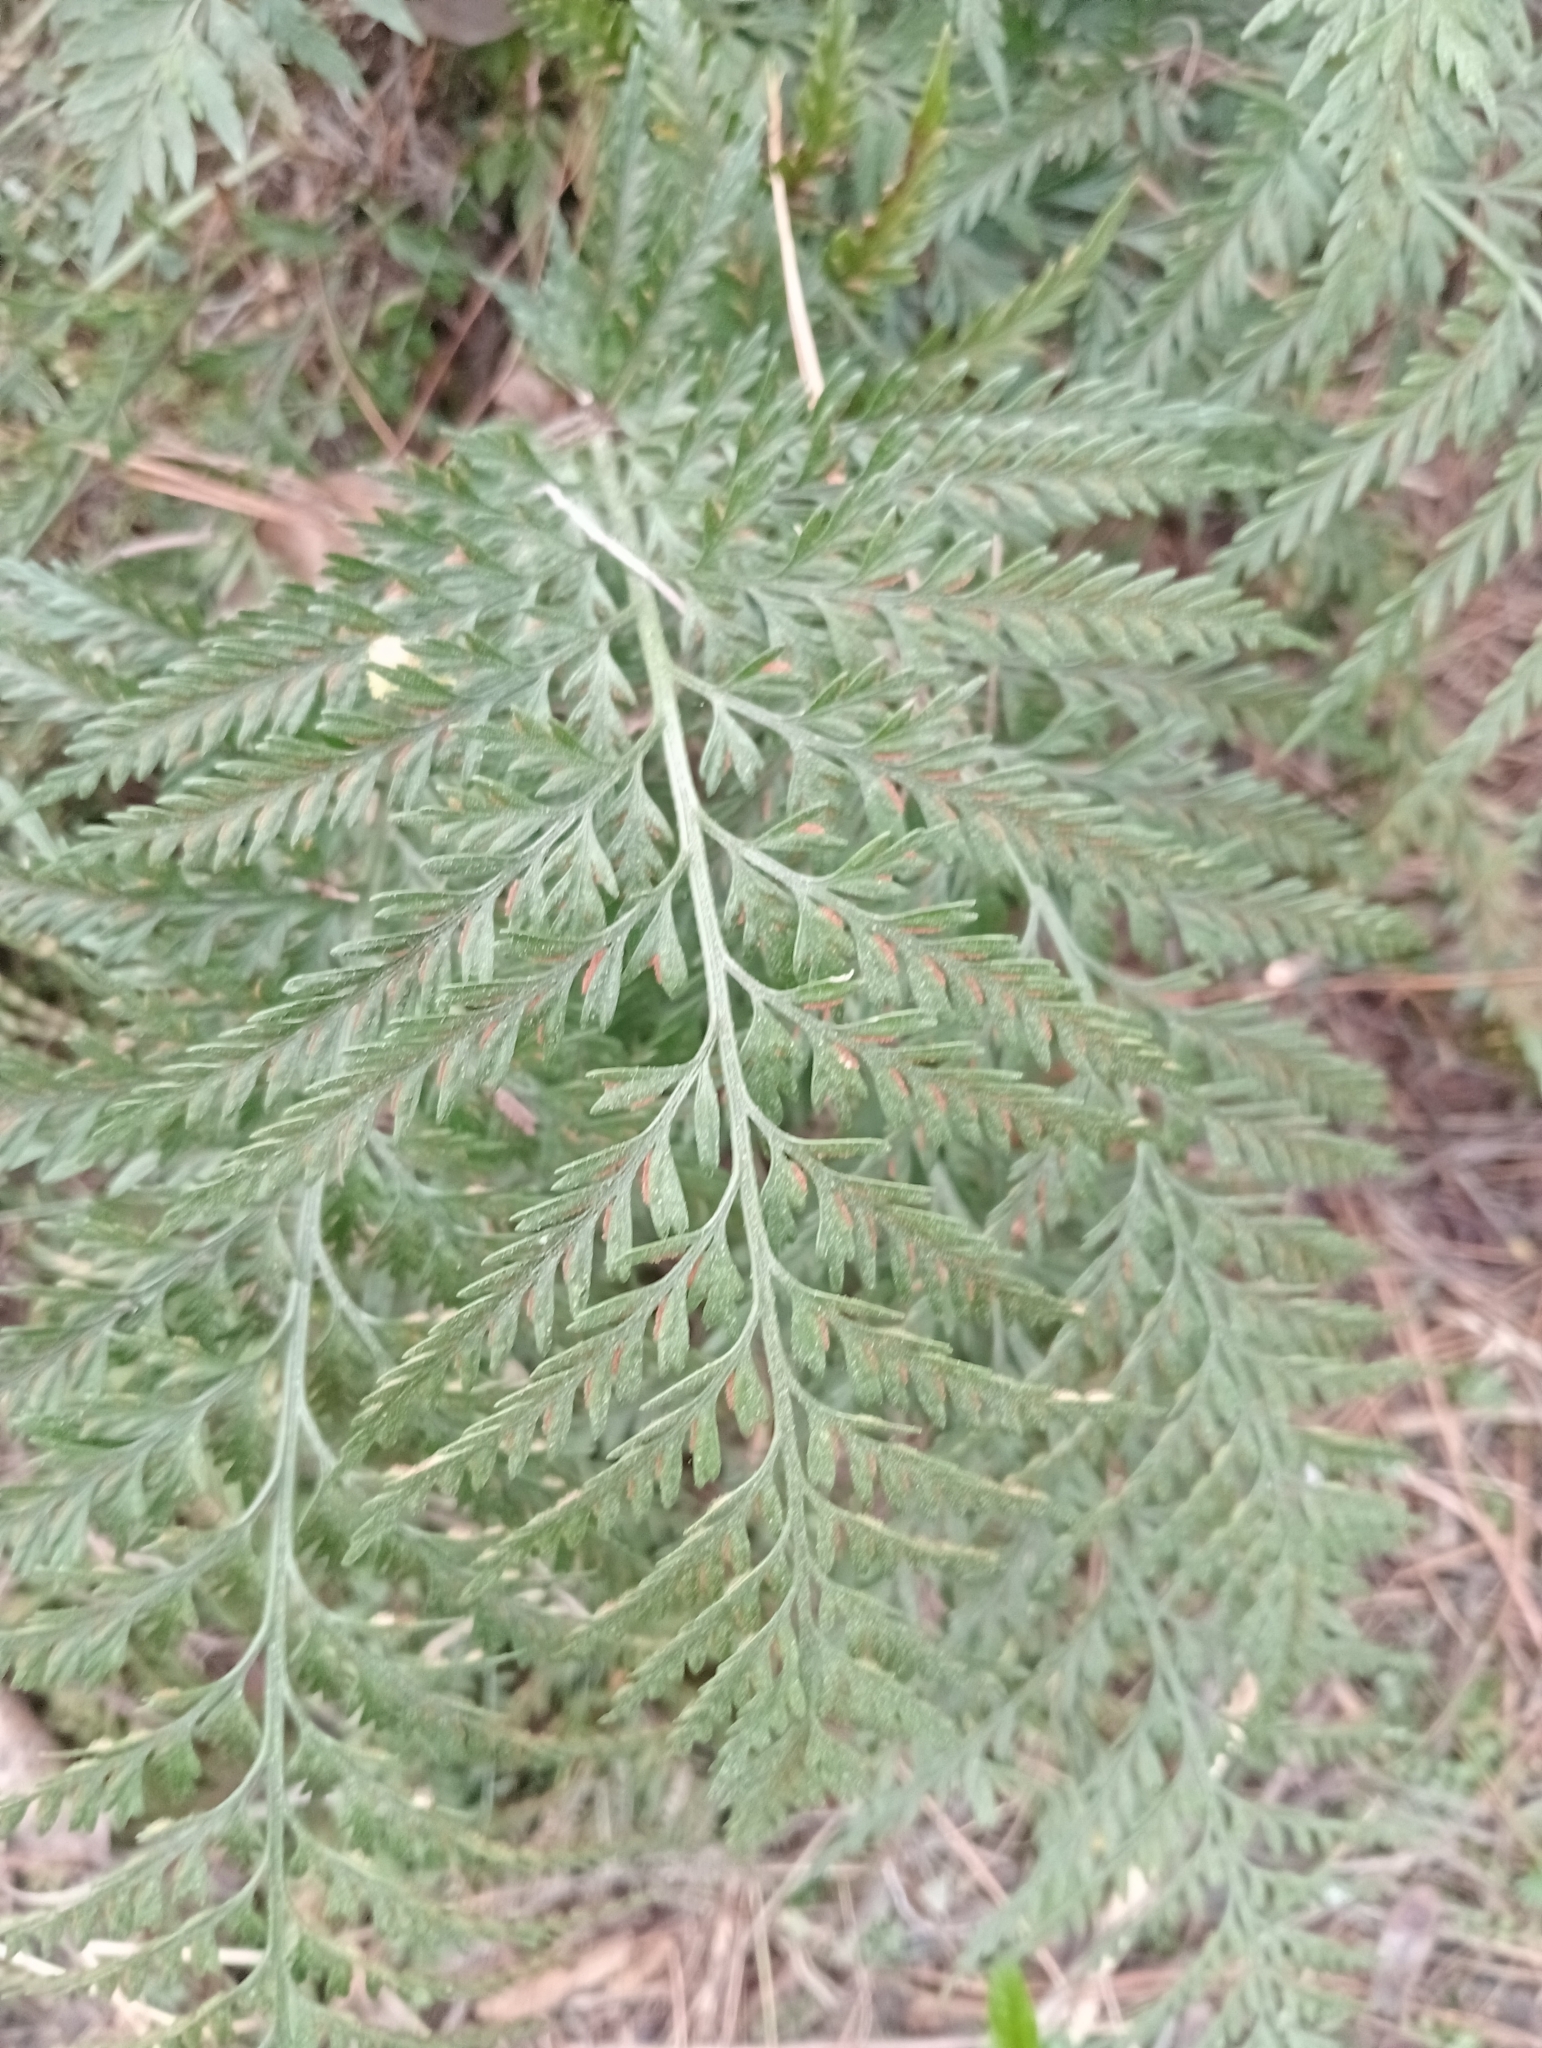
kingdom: Plantae
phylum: Tracheophyta
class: Polypodiopsida
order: Polypodiales
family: Aspleniaceae
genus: Asplenium
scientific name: Asplenium appendiculatum
